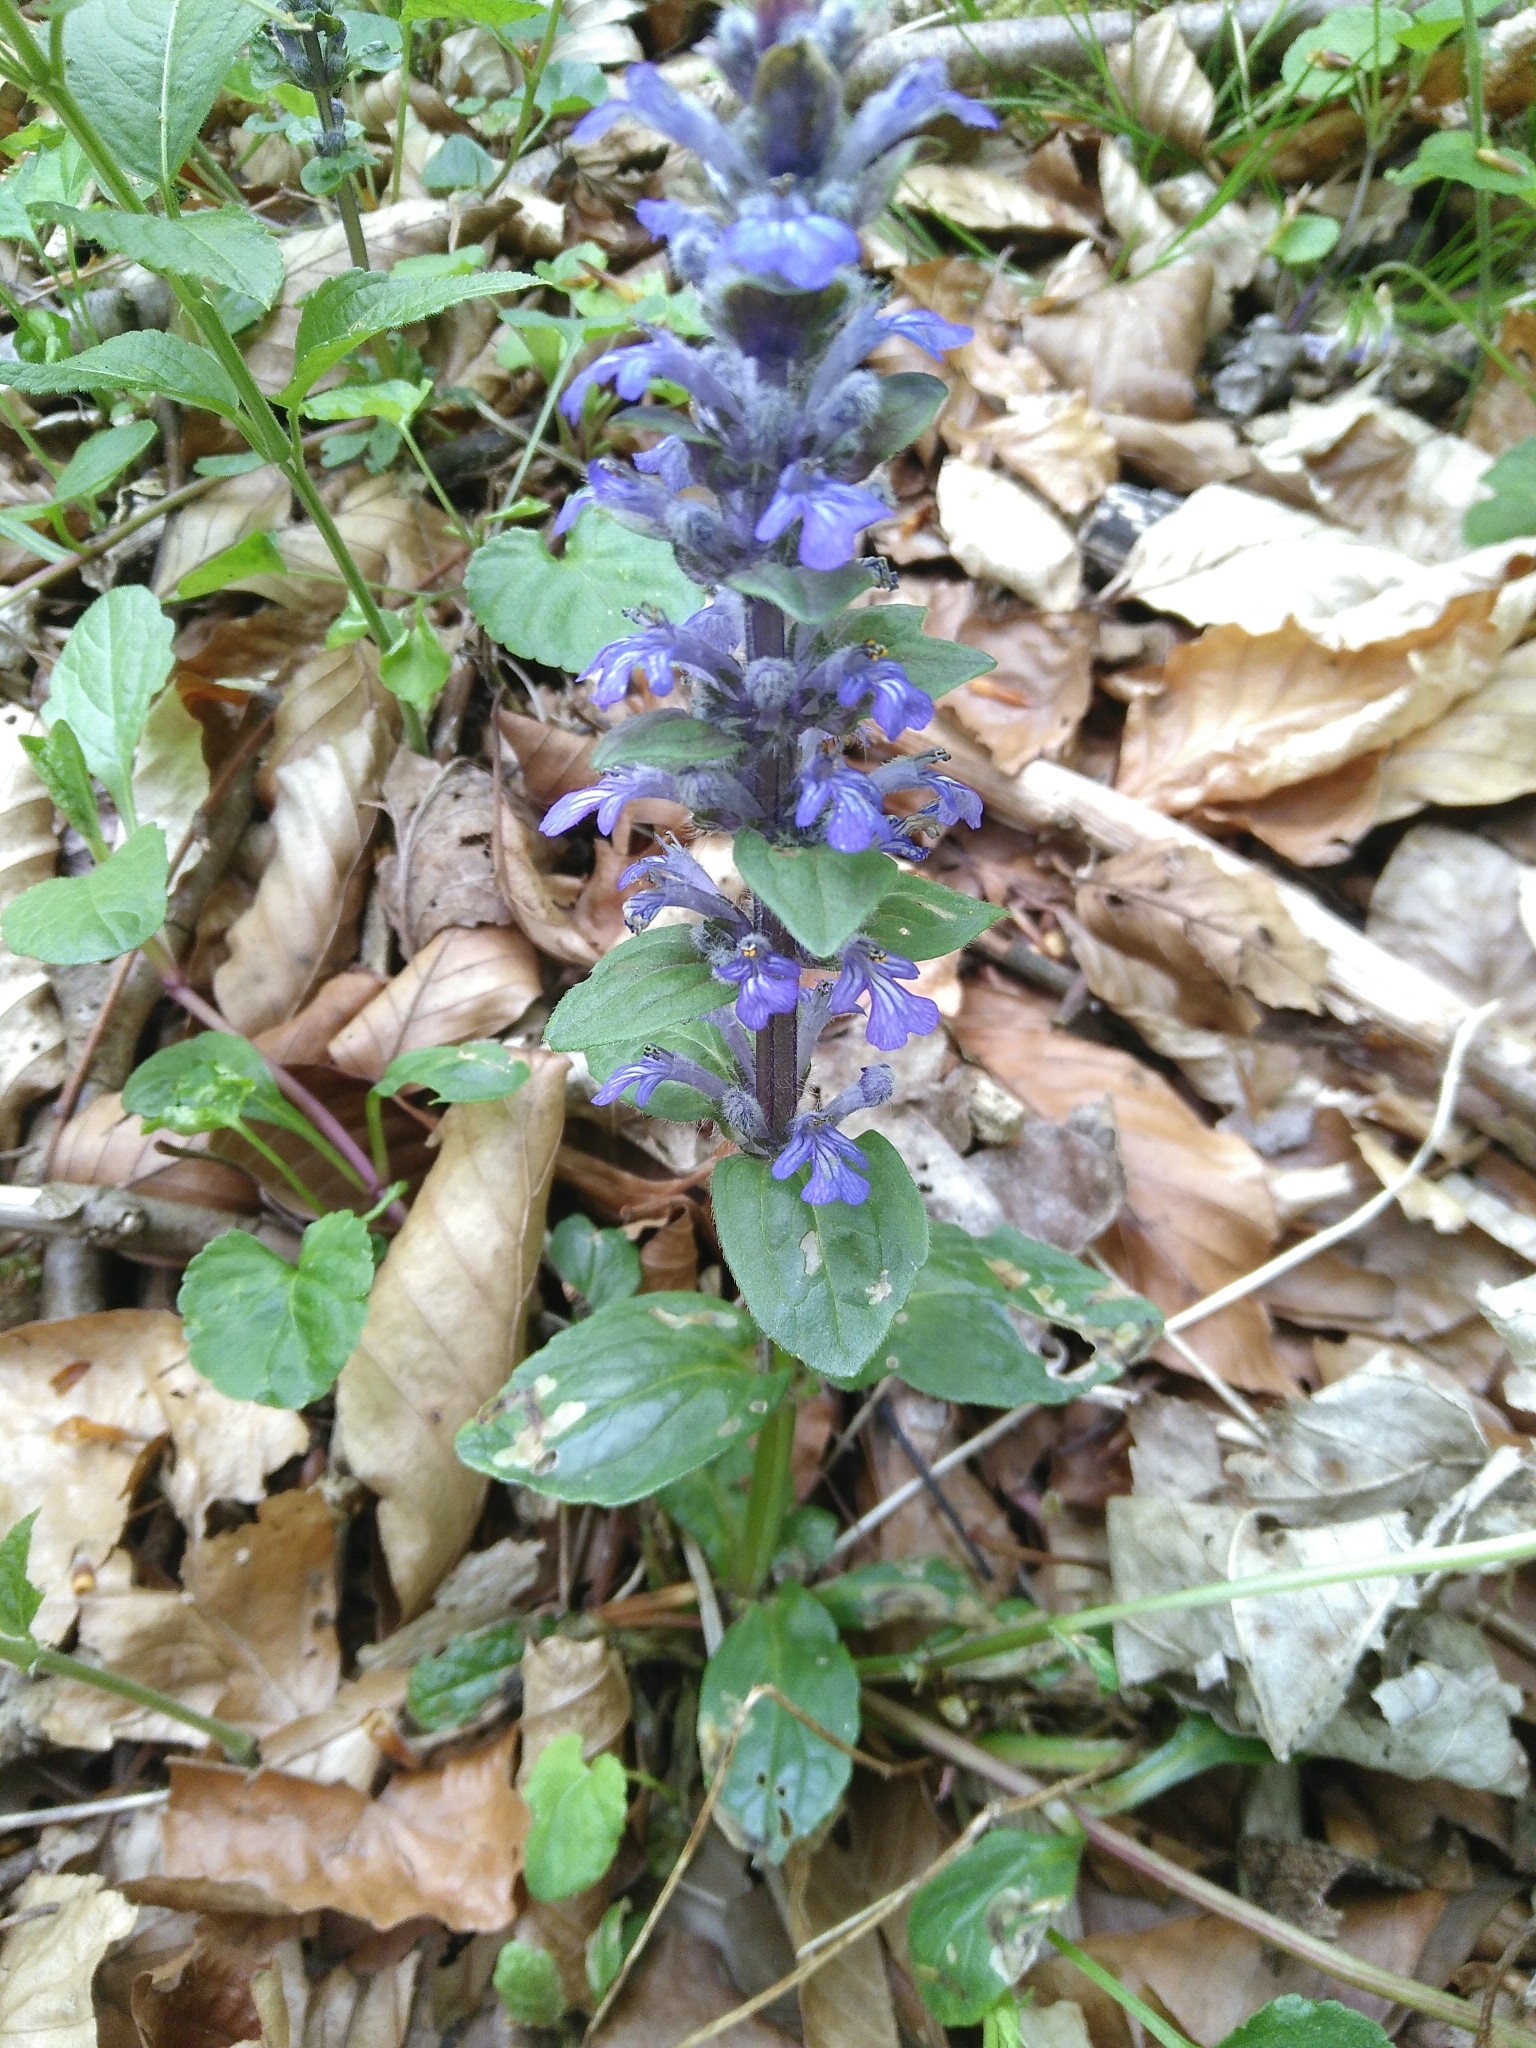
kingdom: Plantae
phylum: Tracheophyta
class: Magnoliopsida
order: Lamiales
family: Lamiaceae
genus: Ajuga
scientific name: Ajuga reptans
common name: Bugle
